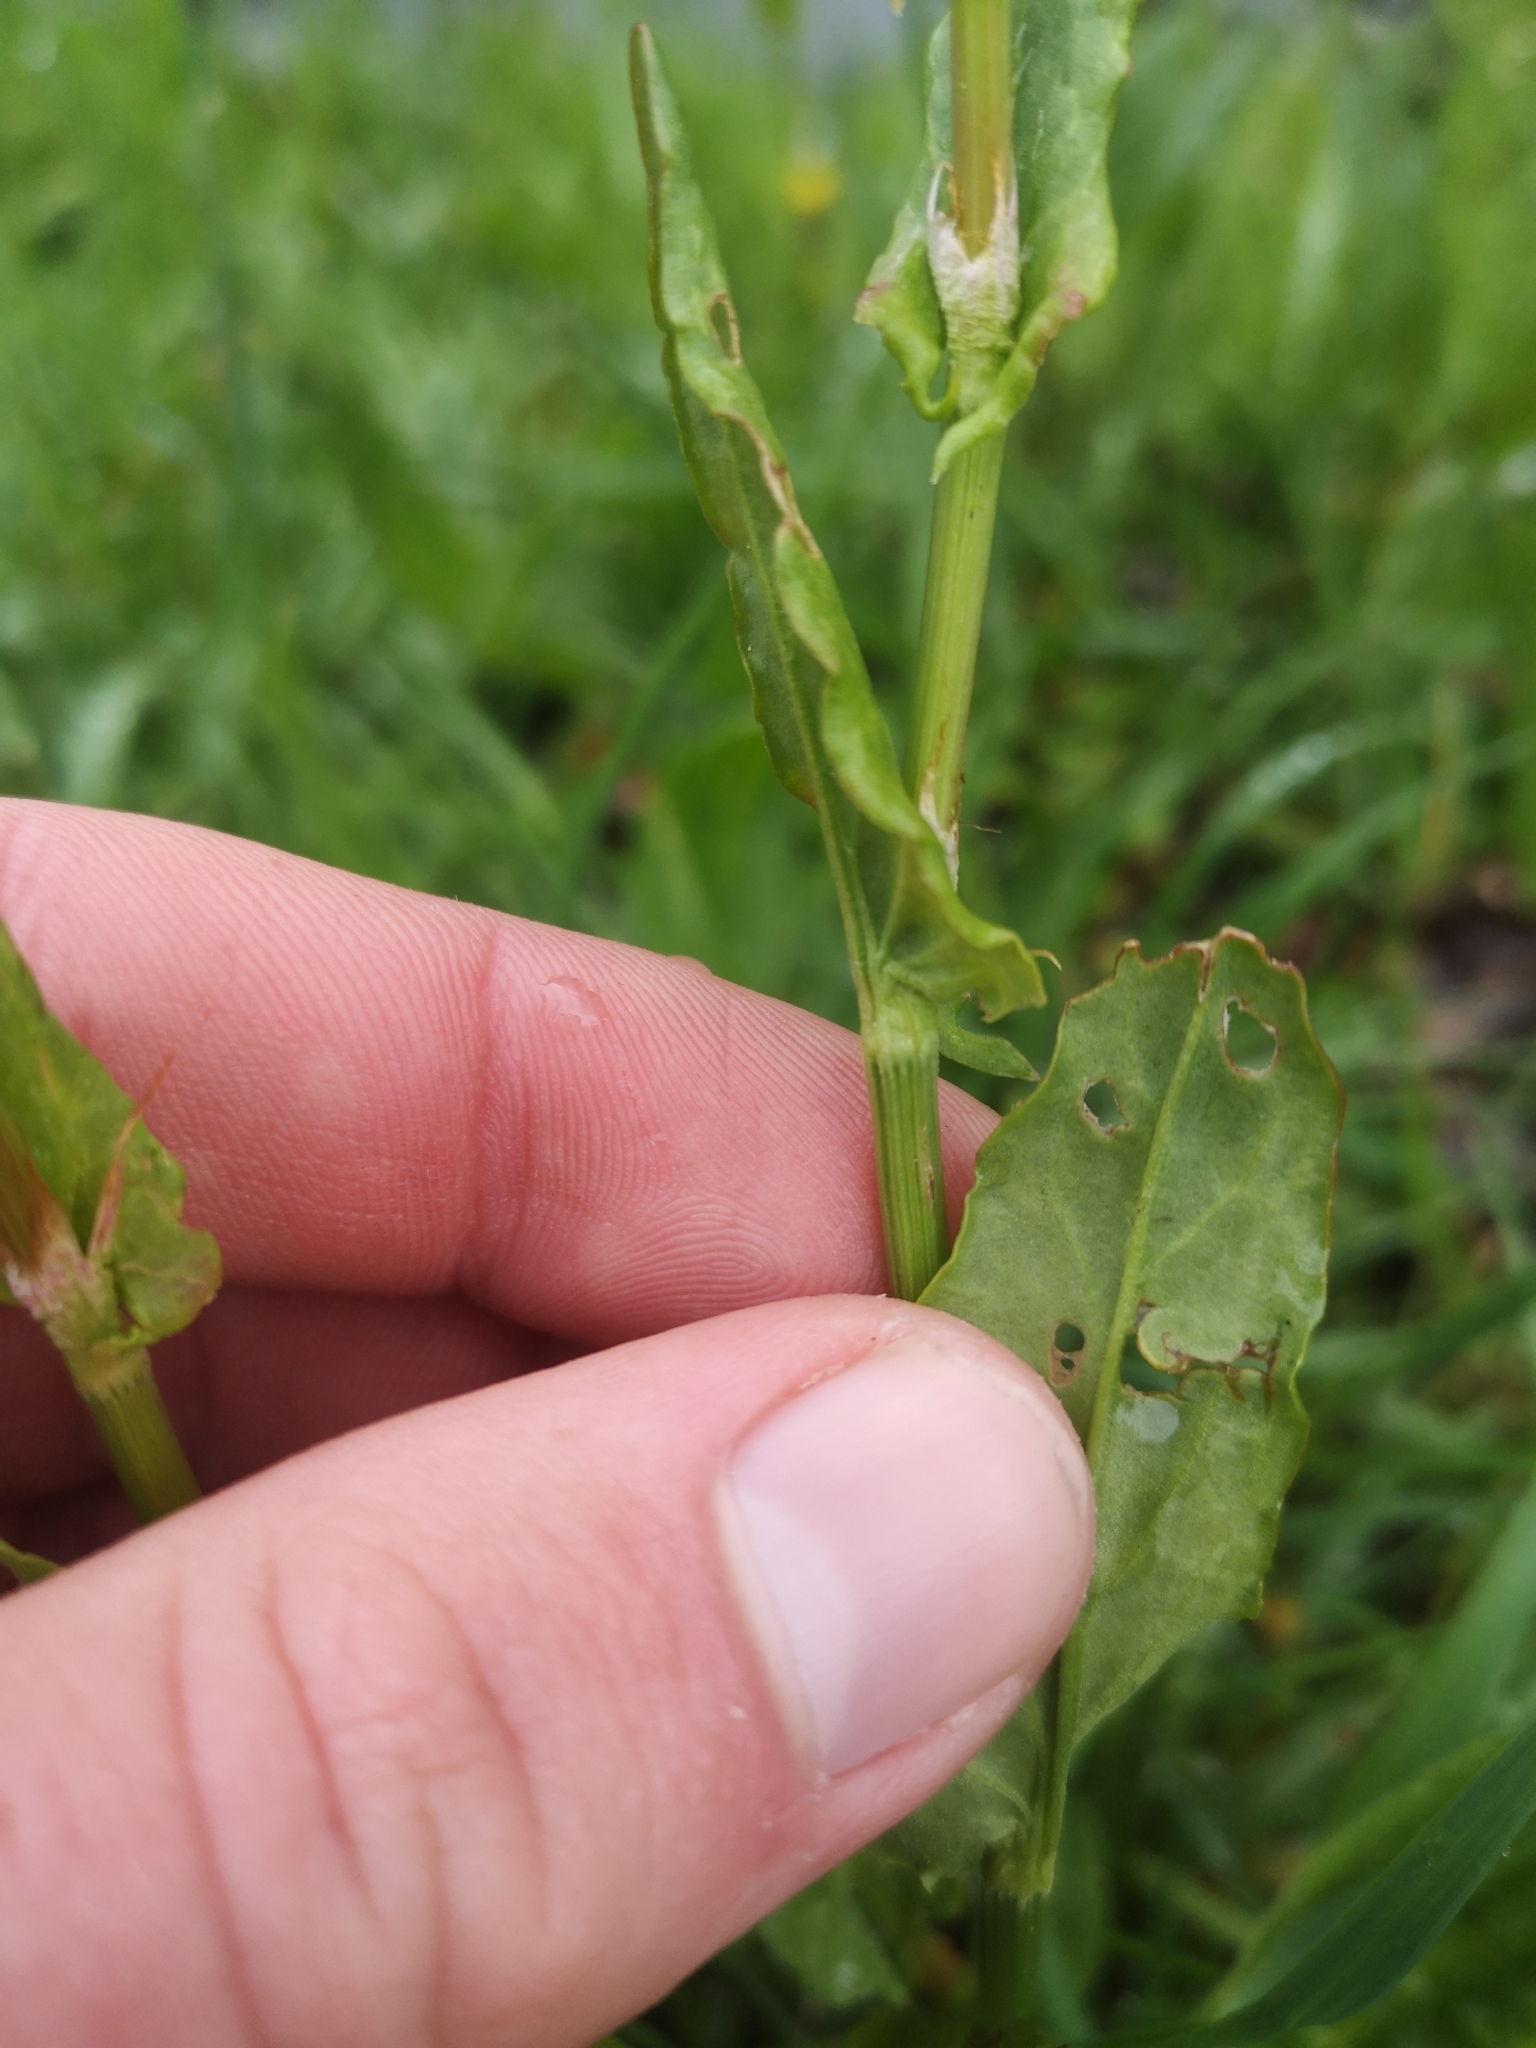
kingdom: Plantae
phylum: Tracheophyta
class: Magnoliopsida
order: Caryophyllales
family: Polygonaceae
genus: Rumex
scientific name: Rumex acetosa
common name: Garden sorrel
